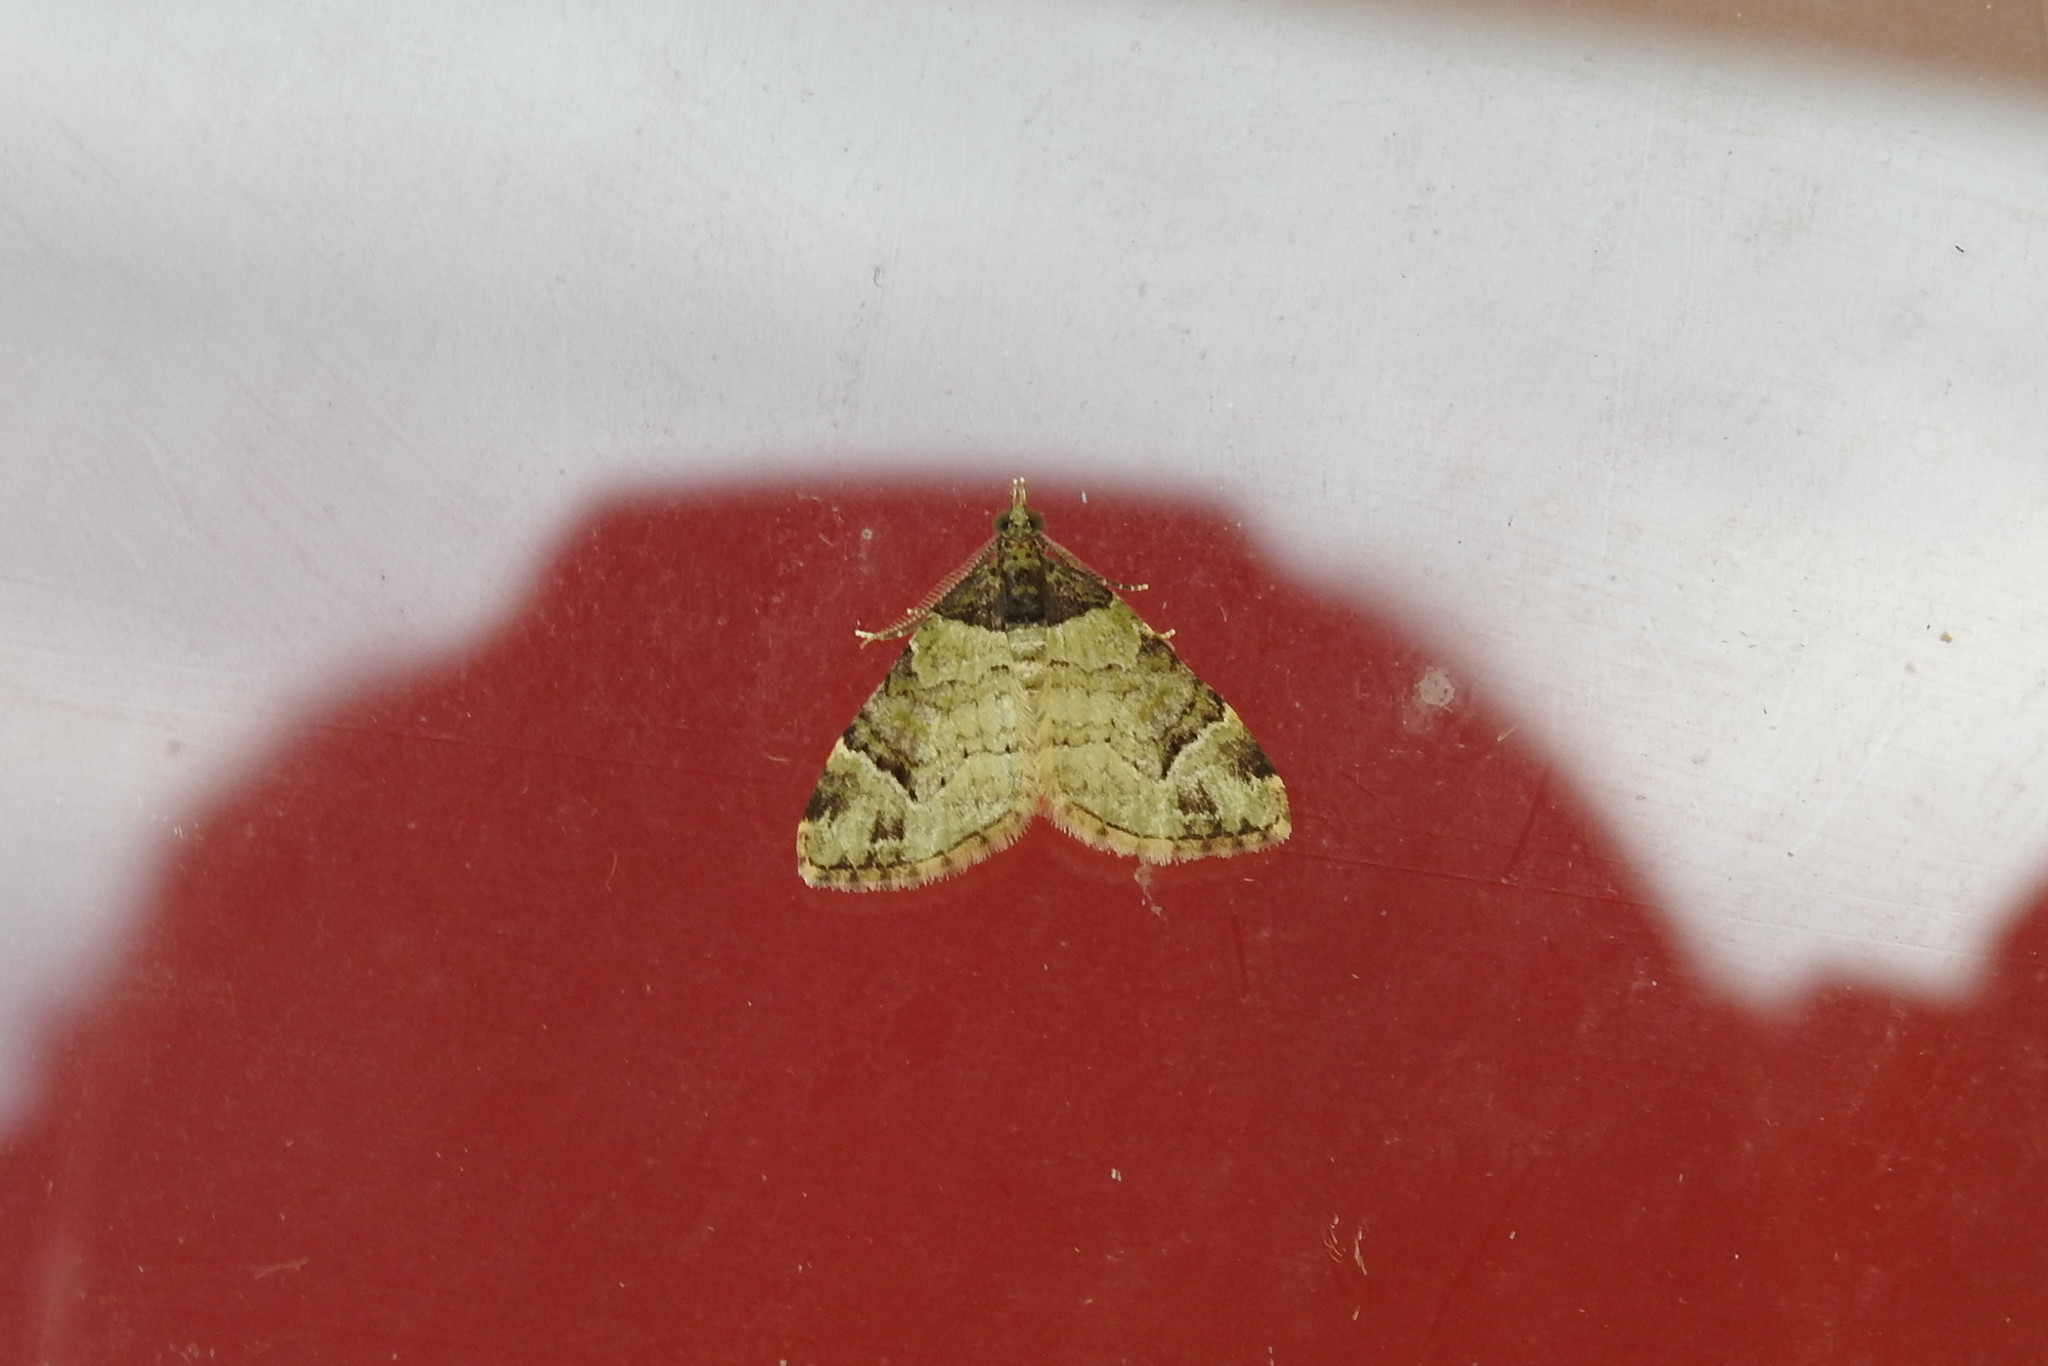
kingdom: Animalia
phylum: Arthropoda
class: Insecta
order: Lepidoptera
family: Geometridae
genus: Xenoclystia
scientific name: Xenoclystia nigroviridata
